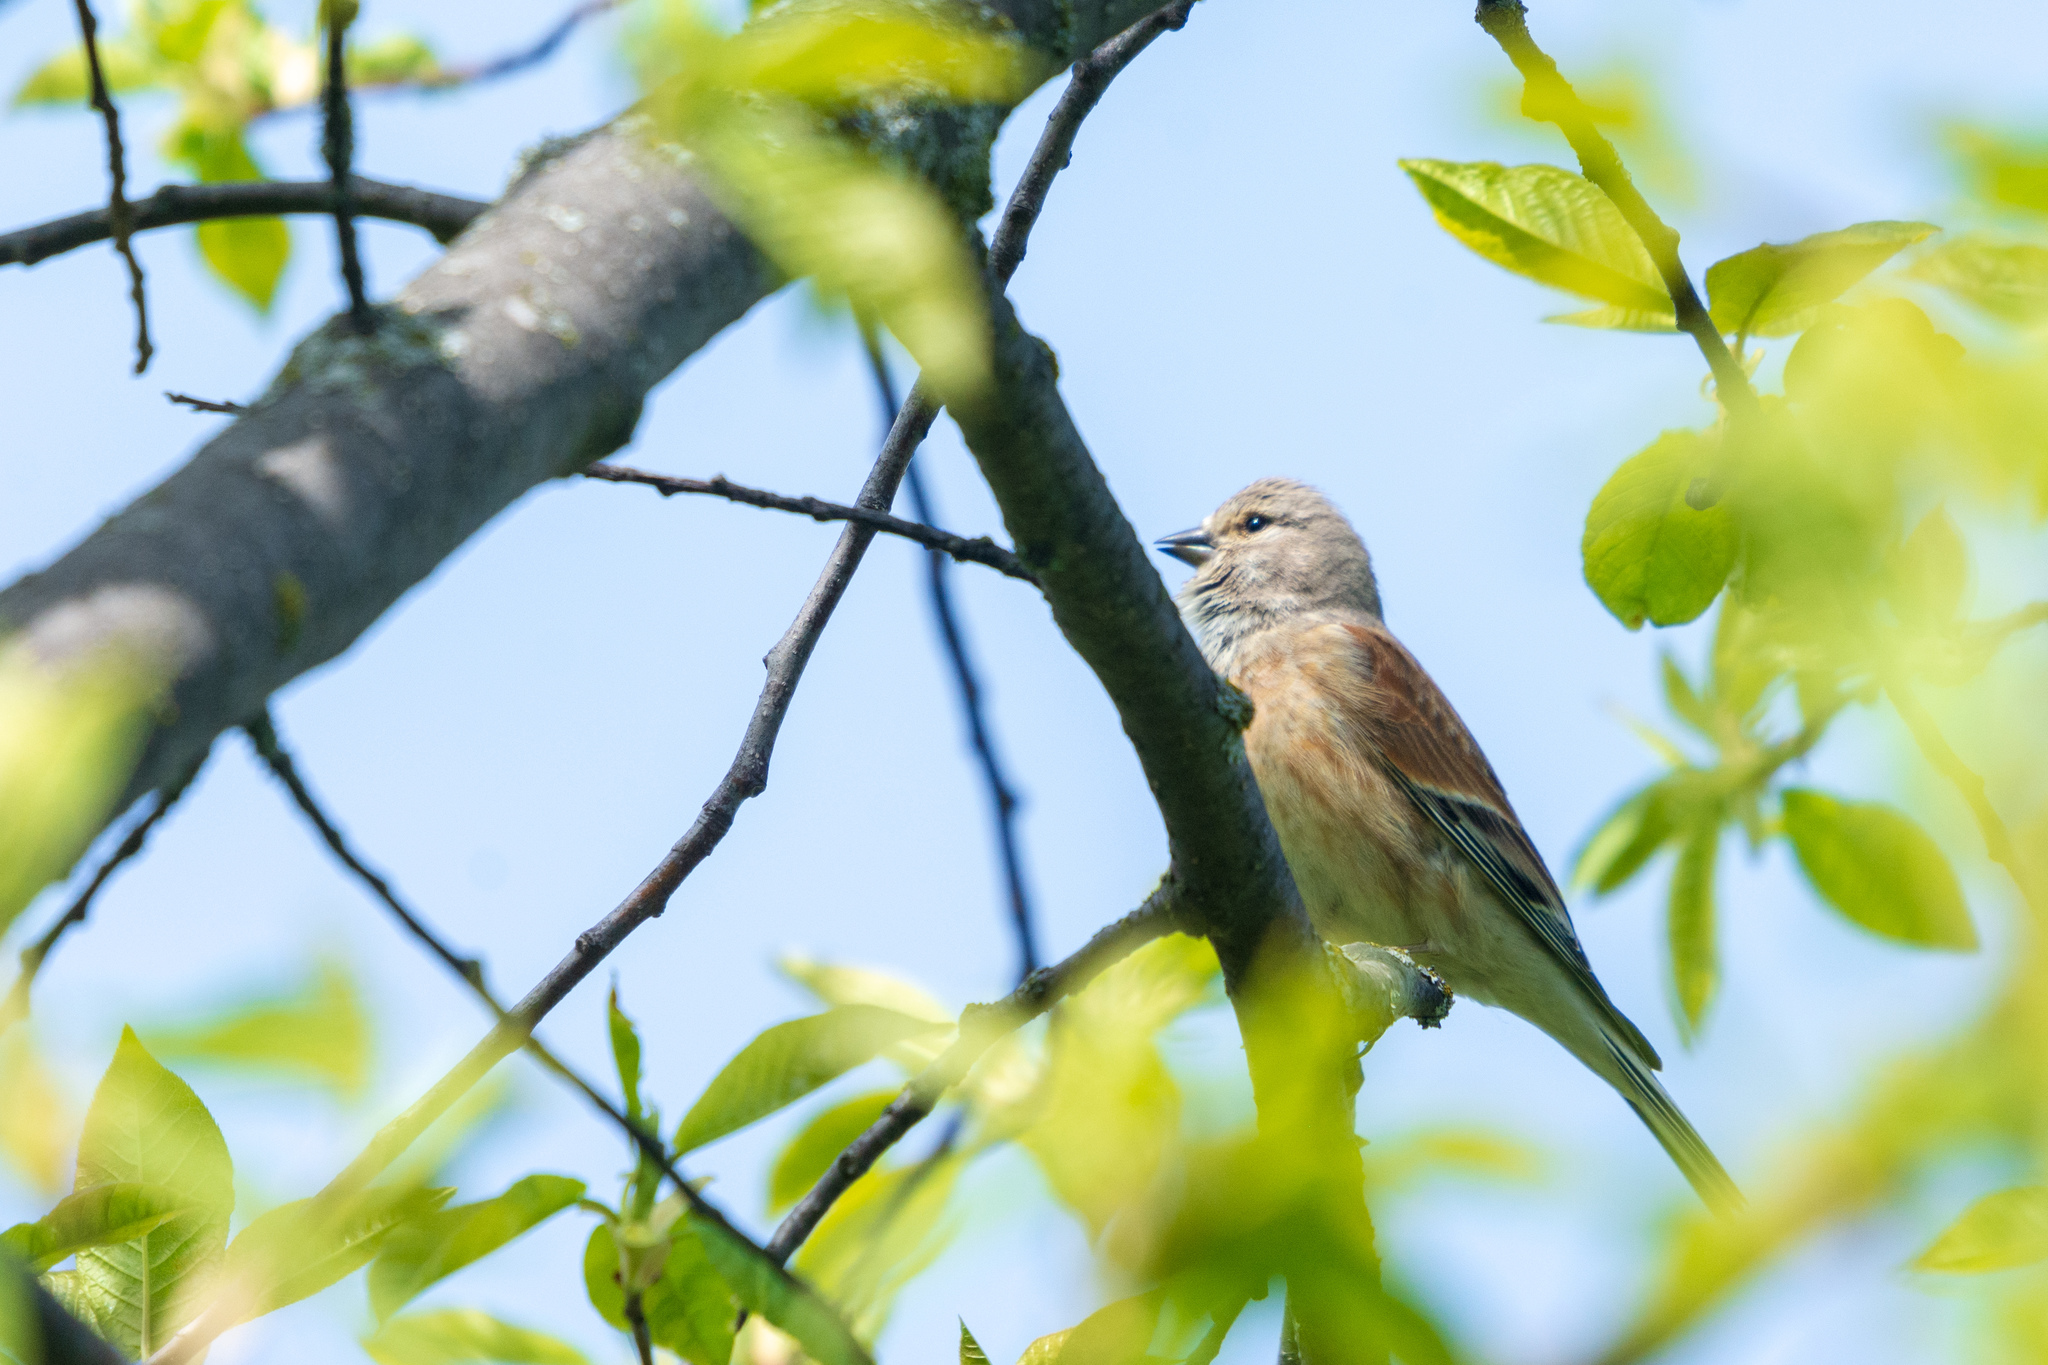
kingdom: Animalia
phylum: Chordata
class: Aves
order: Passeriformes
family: Fringillidae
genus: Linaria
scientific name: Linaria cannabina
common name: Common linnet
